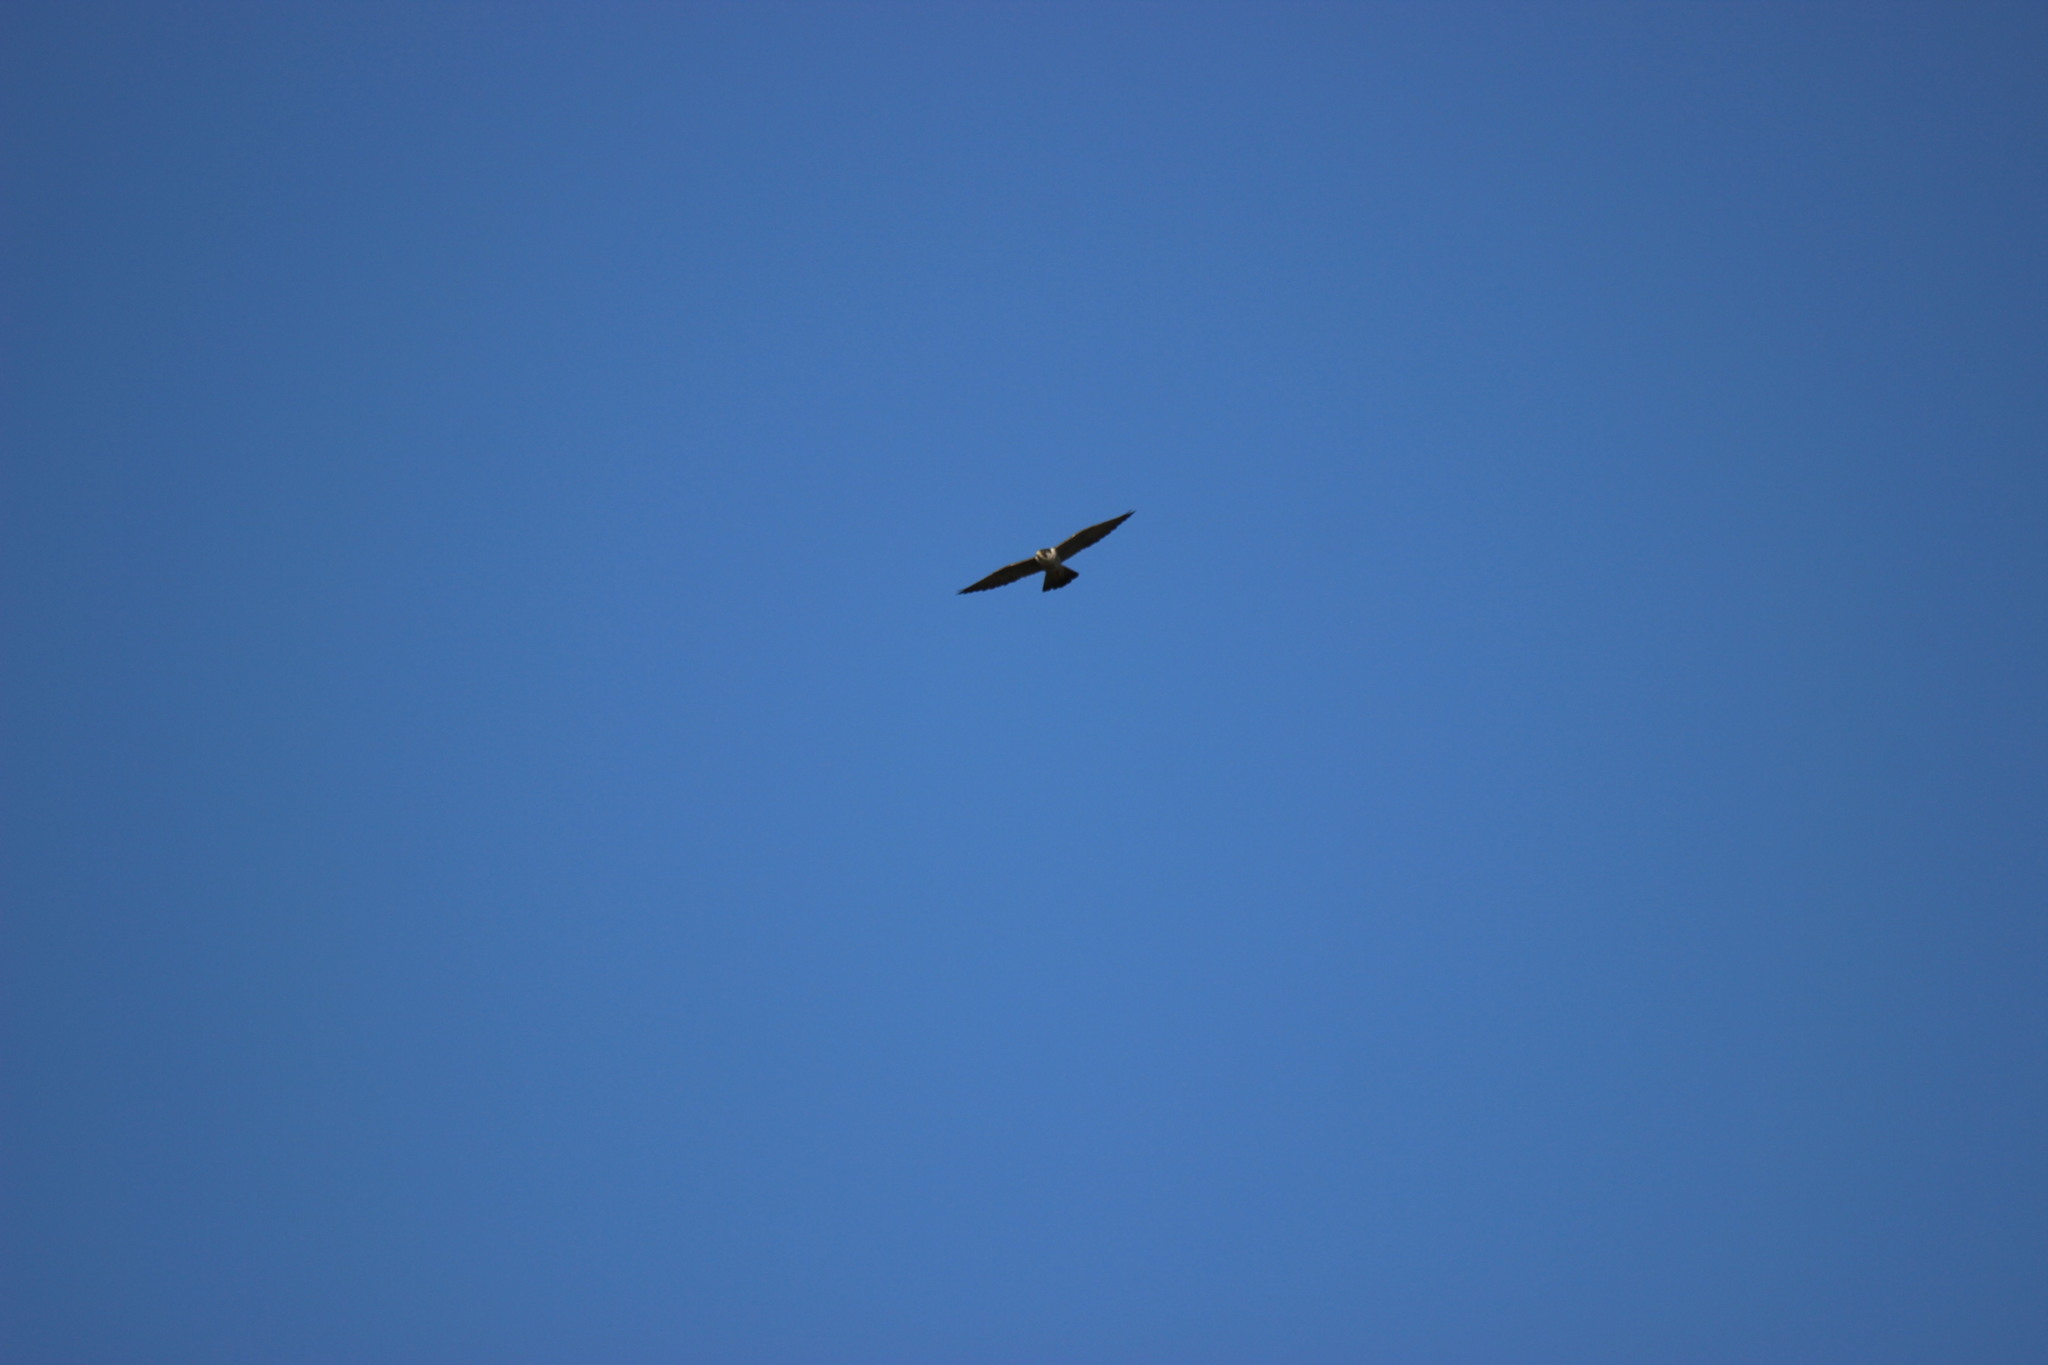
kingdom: Animalia
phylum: Chordata
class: Aves
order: Falconiformes
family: Falconidae
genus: Falco
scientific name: Falco peregrinus
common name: Peregrine falcon
